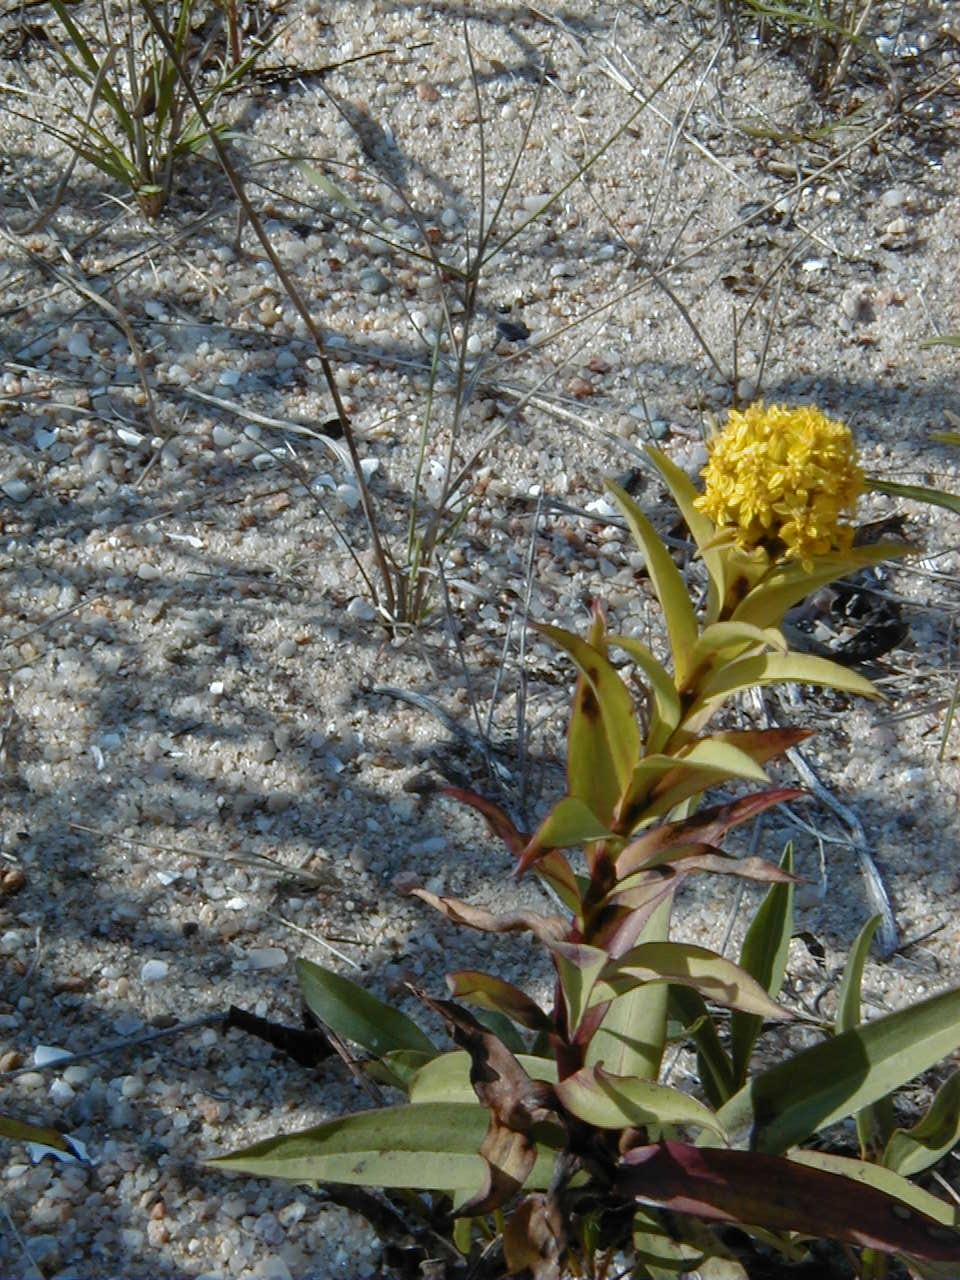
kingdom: Plantae
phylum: Tracheophyta
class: Magnoliopsida
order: Asterales
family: Asteraceae
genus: Solidago
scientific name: Solidago sempervirens
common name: Salt-marsh goldenrod
